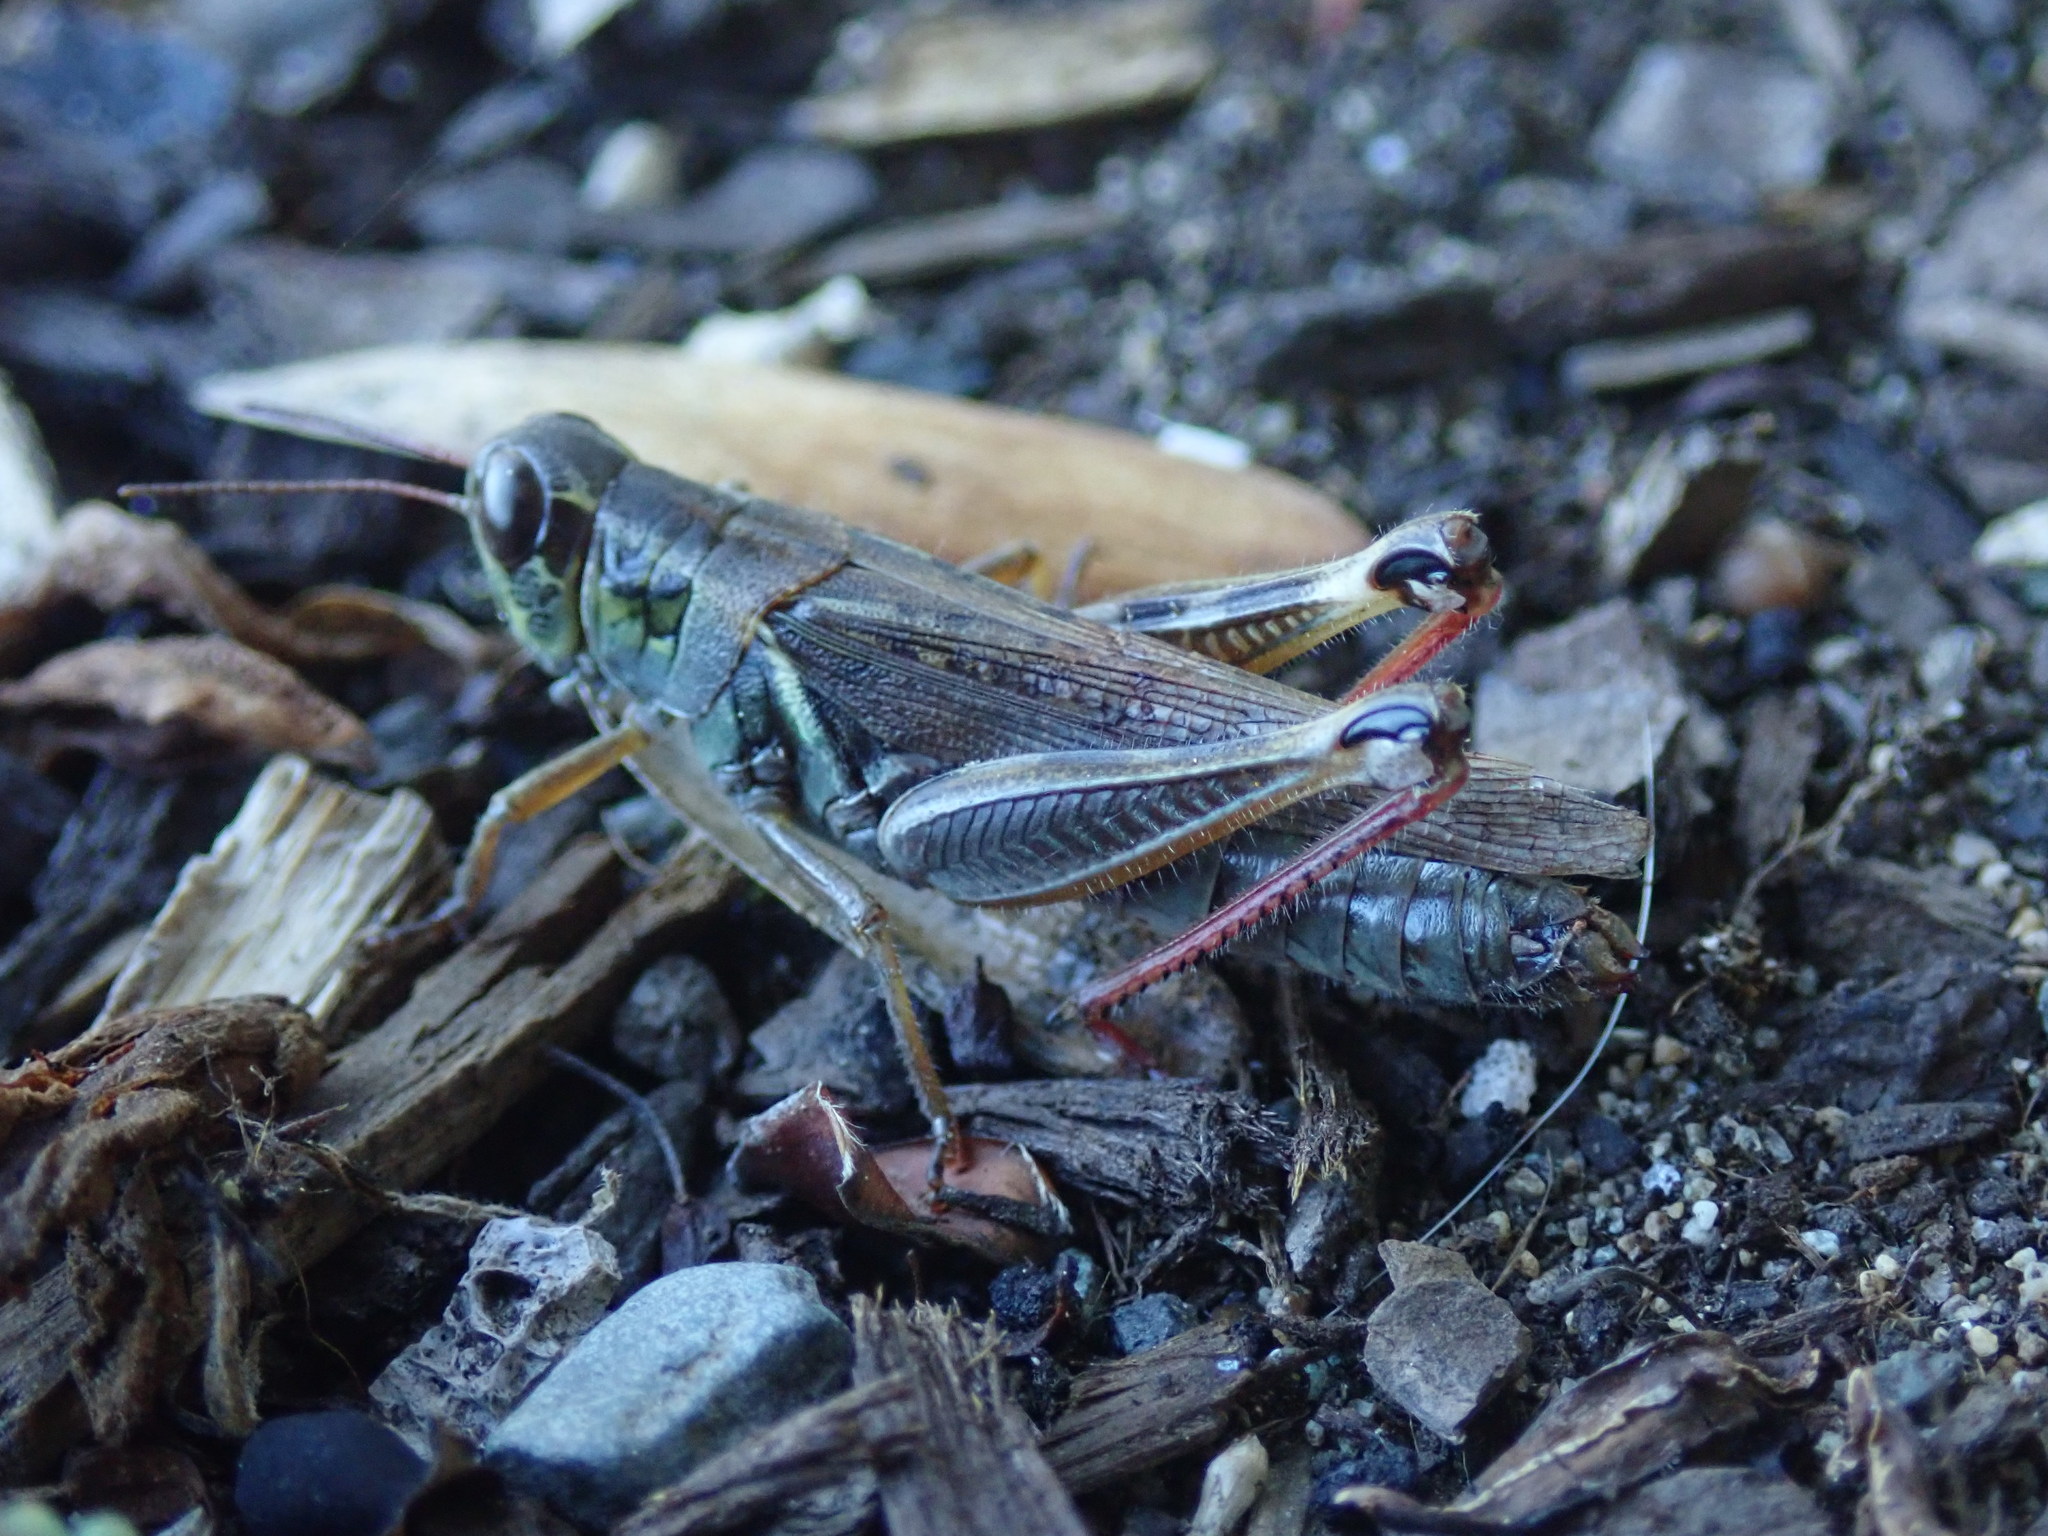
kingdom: Animalia
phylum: Arthropoda
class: Insecta
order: Orthoptera
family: Acrididae
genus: Melanoplus
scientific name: Melanoplus femurrubrum
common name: Red-legged grasshopper
